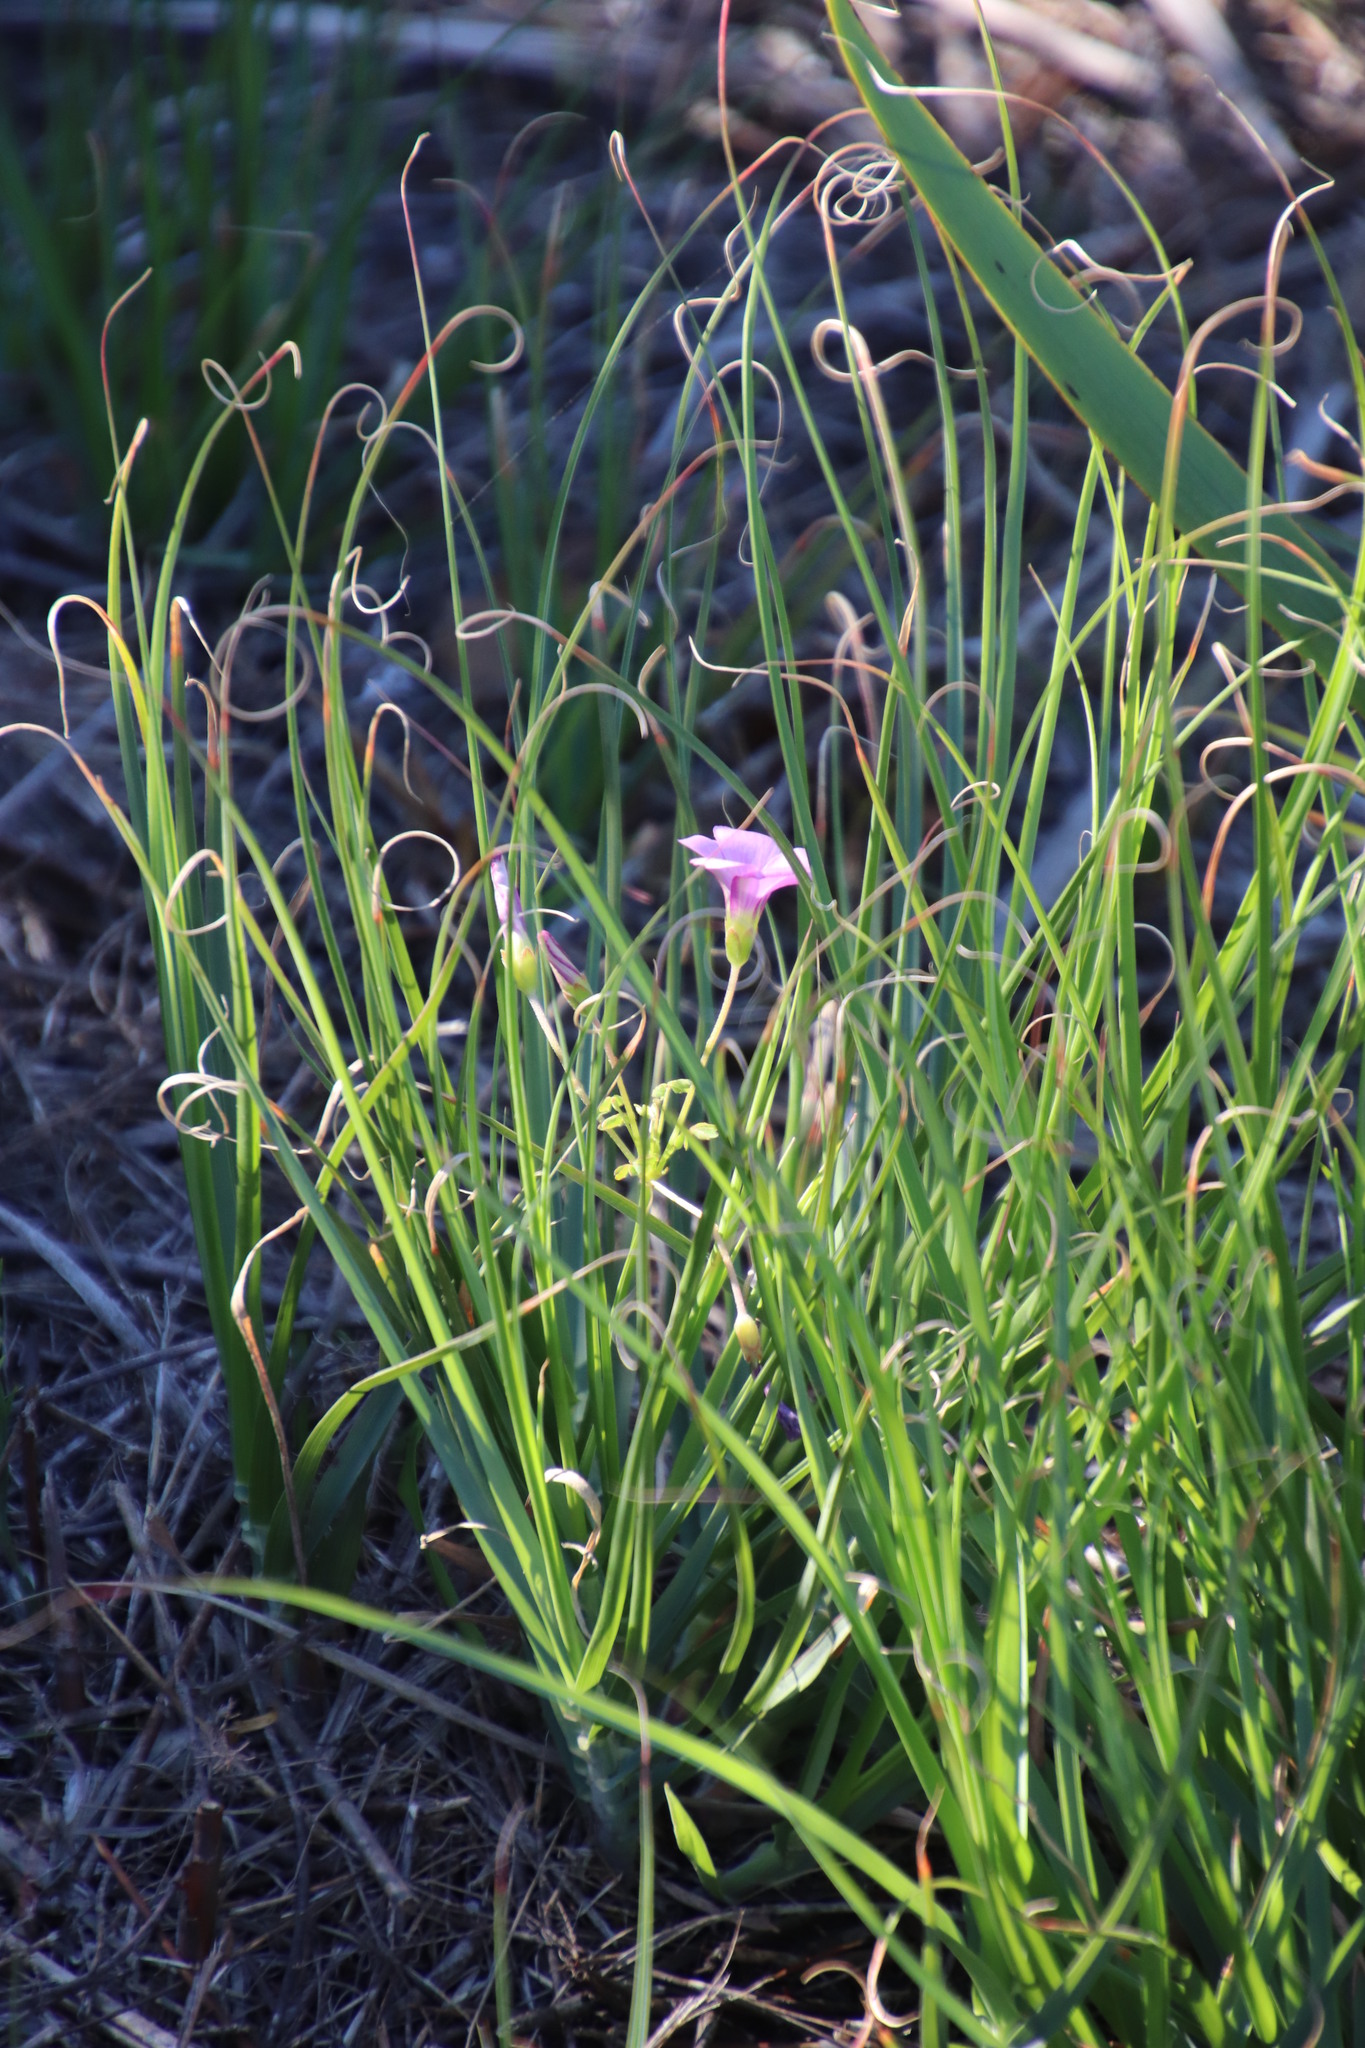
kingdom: Plantae
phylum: Tracheophyta
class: Magnoliopsida
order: Oxalidales
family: Oxalidaceae
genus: Oxalis
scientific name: Oxalis bifida
